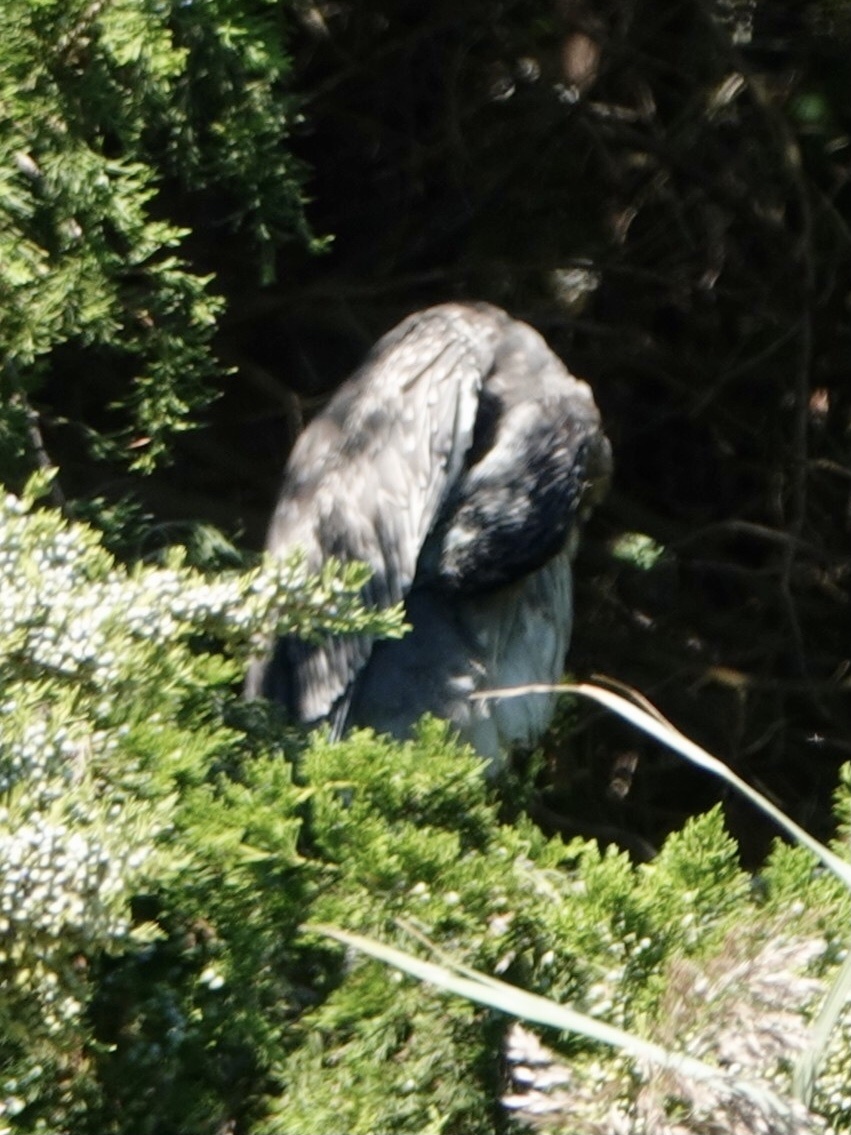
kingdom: Animalia
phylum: Chordata
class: Aves
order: Pelecaniformes
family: Ardeidae
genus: Nyctanassa
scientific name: Nyctanassa violacea
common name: Yellow-crowned night heron
